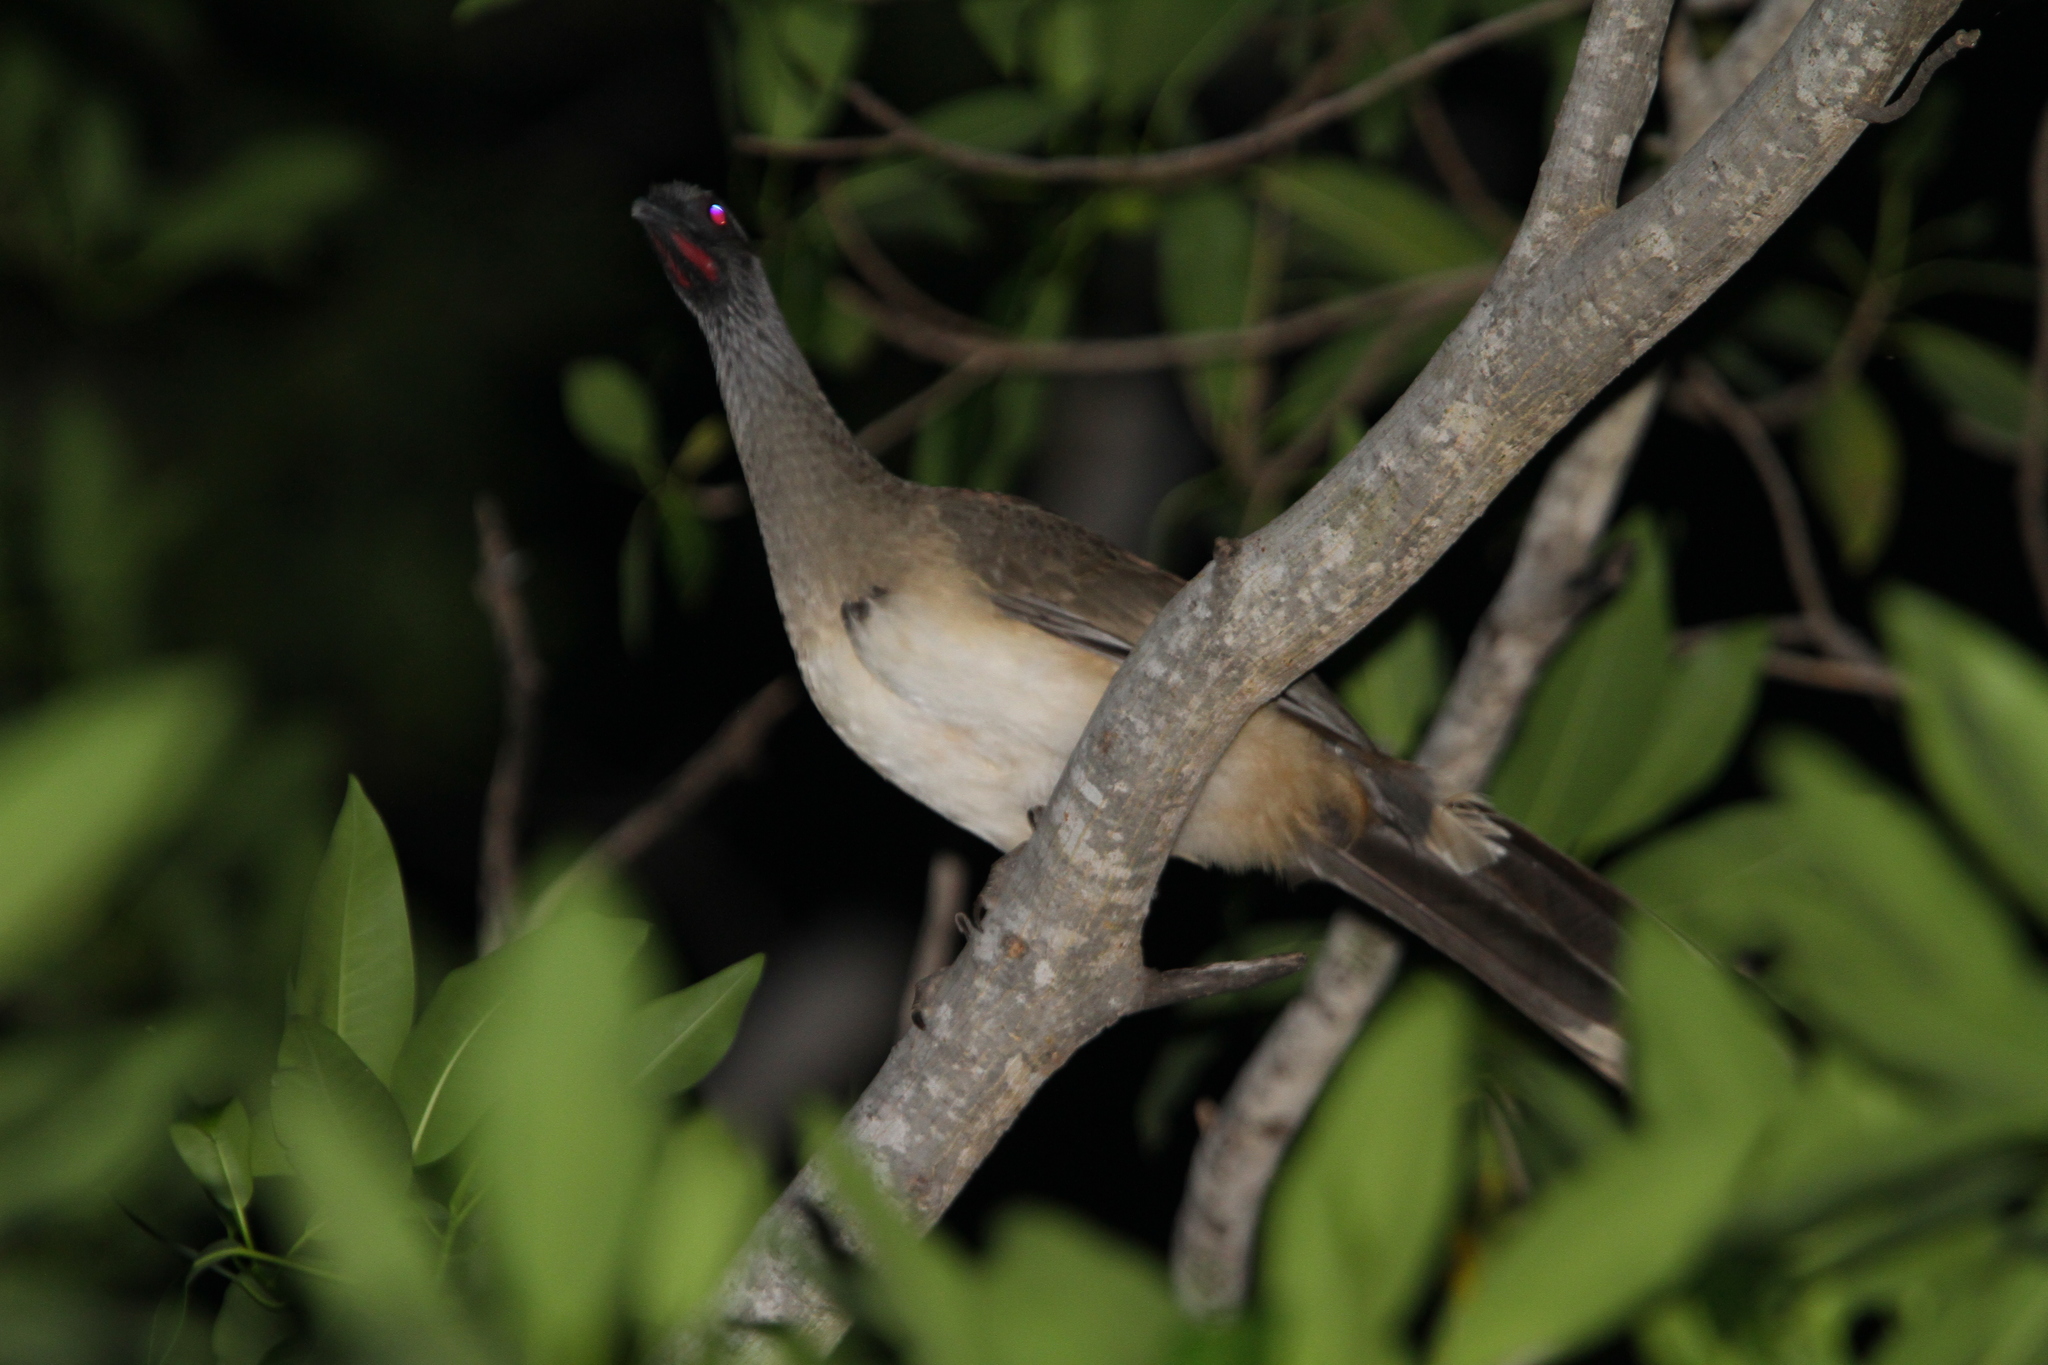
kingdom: Animalia
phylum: Chordata
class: Aves
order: Galliformes
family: Cracidae
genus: Ortalis
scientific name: Ortalis poliocephala
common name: West mexican chachalaca
